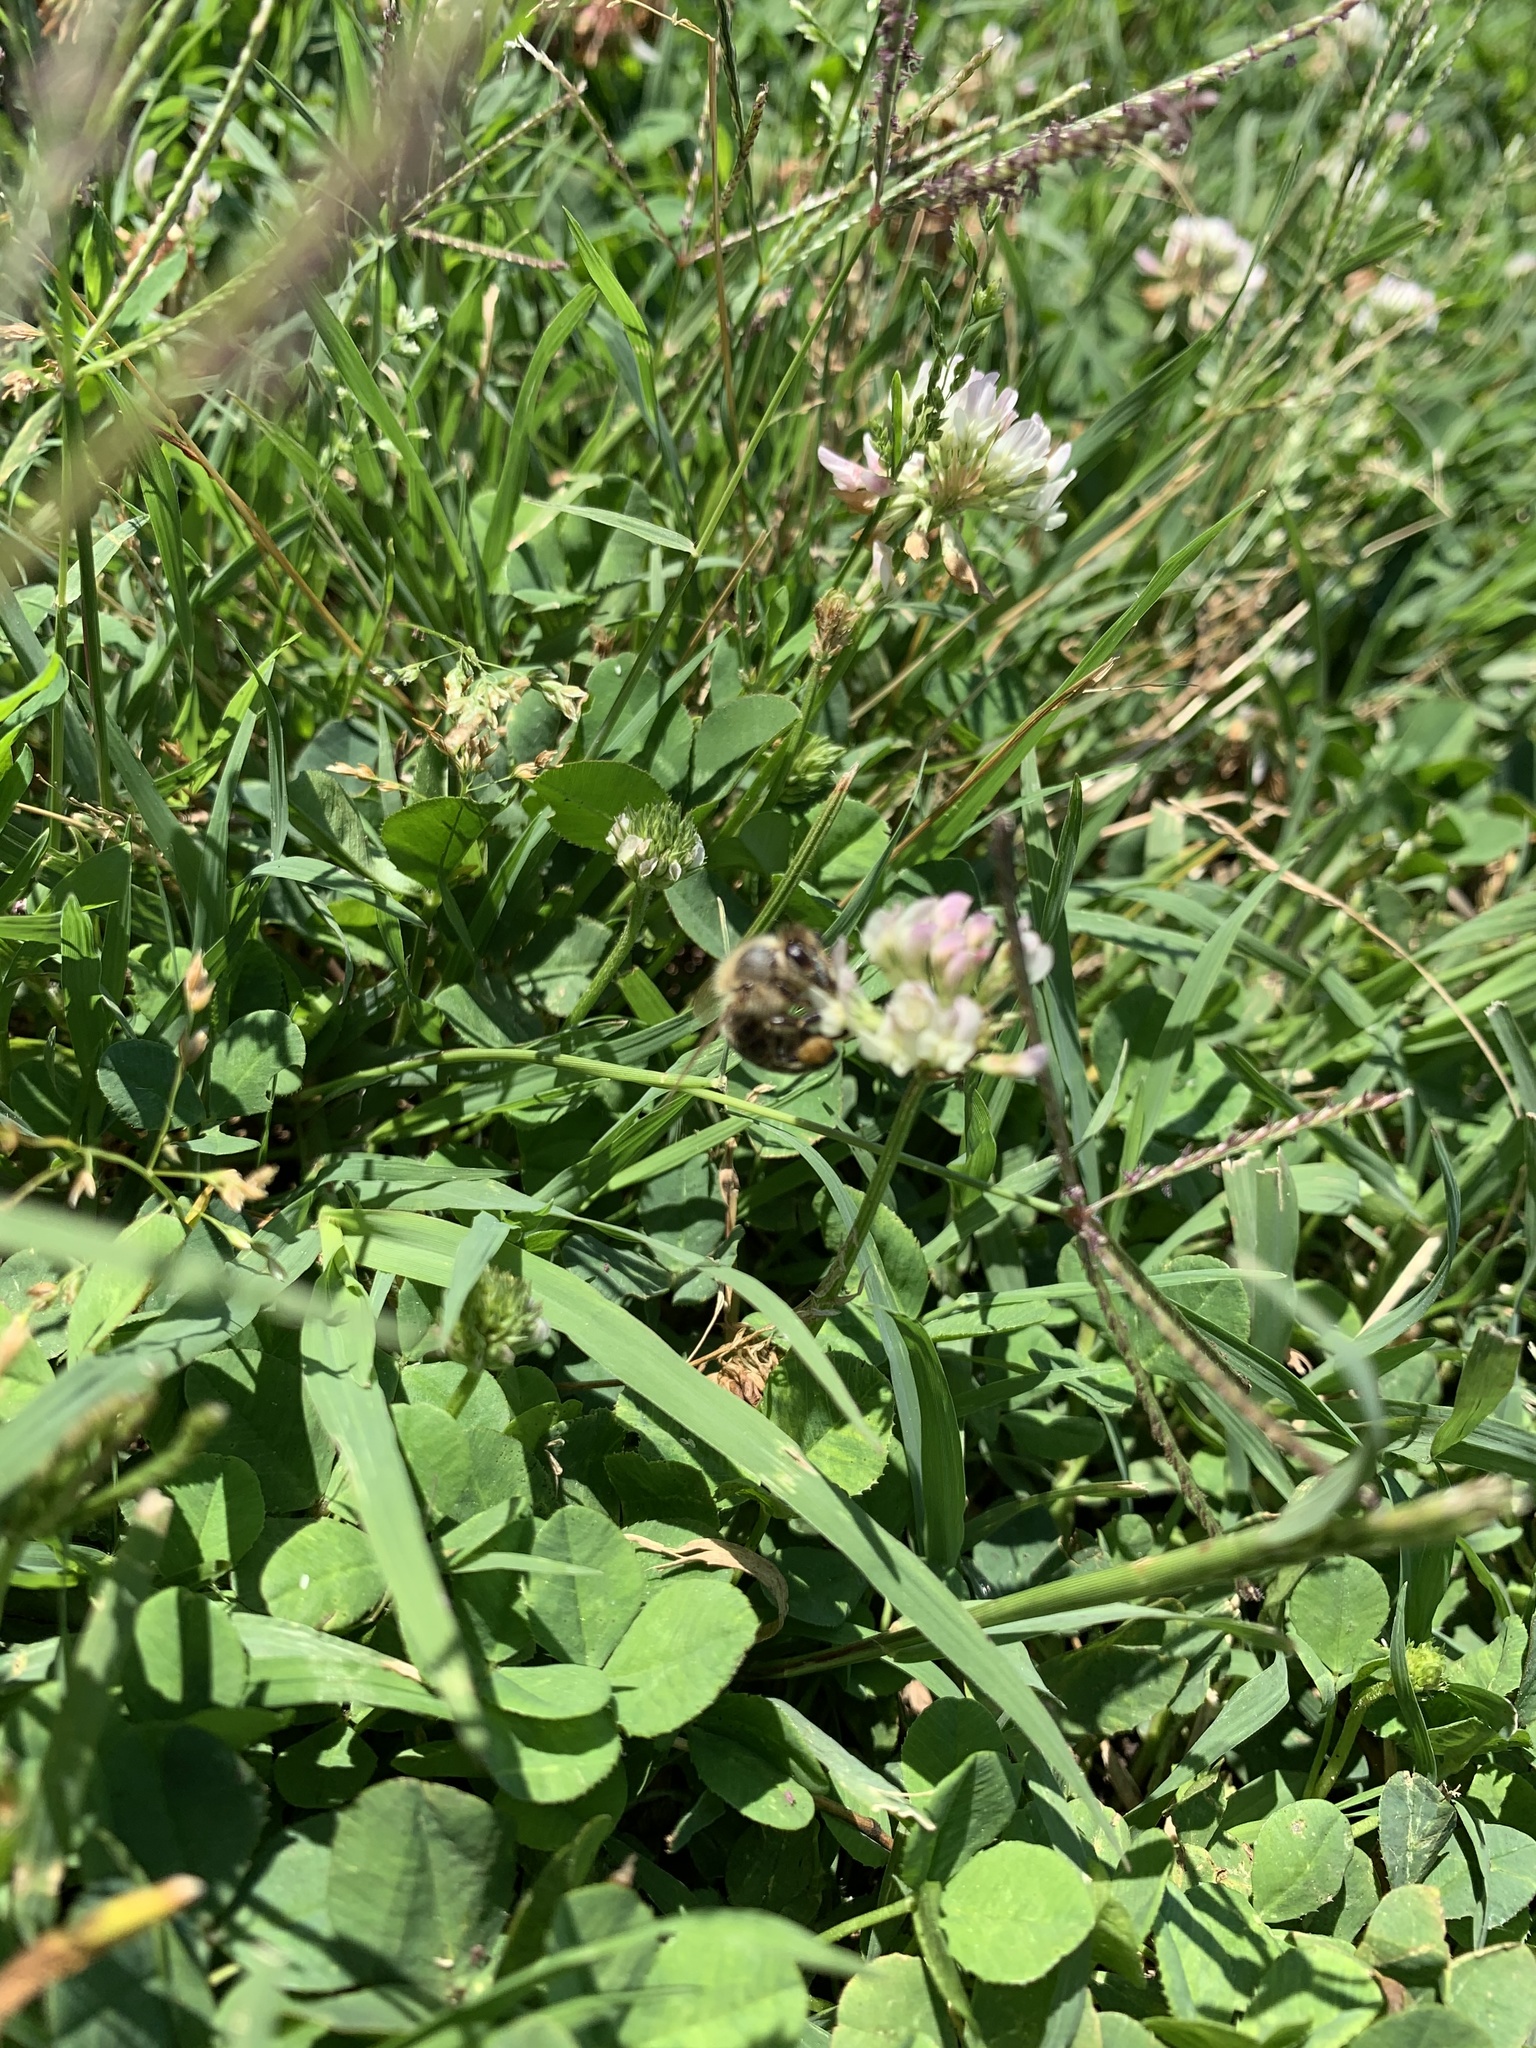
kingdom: Animalia
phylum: Arthropoda
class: Insecta
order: Hymenoptera
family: Apidae
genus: Apis
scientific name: Apis mellifera
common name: Honey bee
